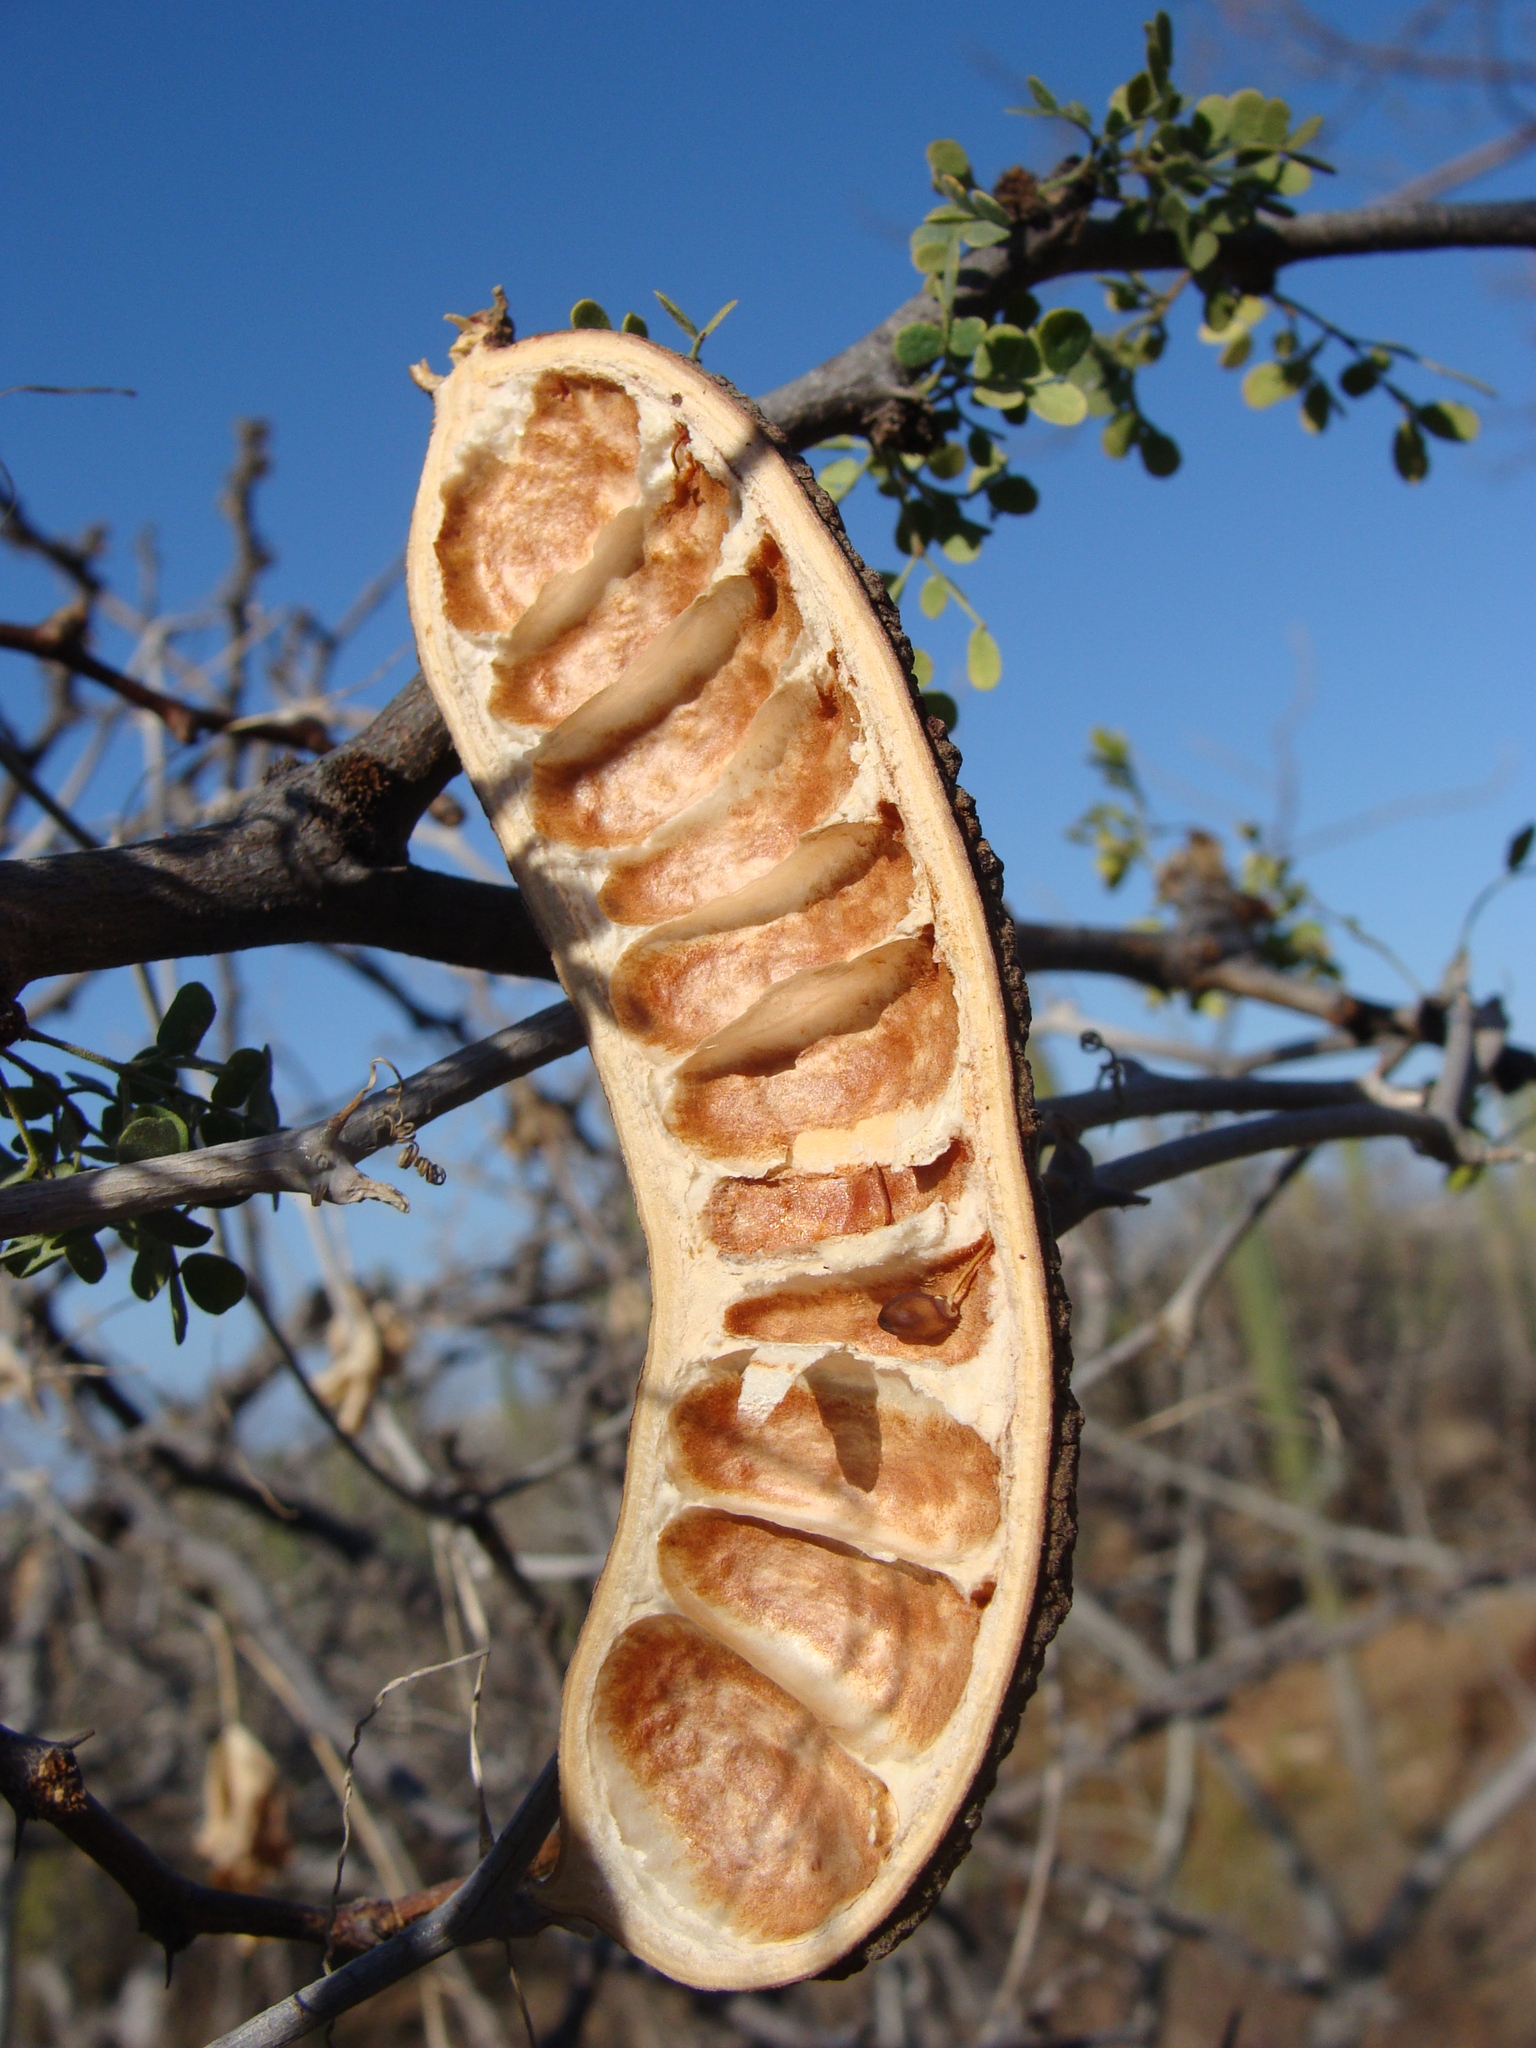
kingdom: Plantae
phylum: Tracheophyta
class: Magnoliopsida
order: Fabales
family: Fabaceae
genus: Ebenopsis
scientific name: Ebenopsis confinis
